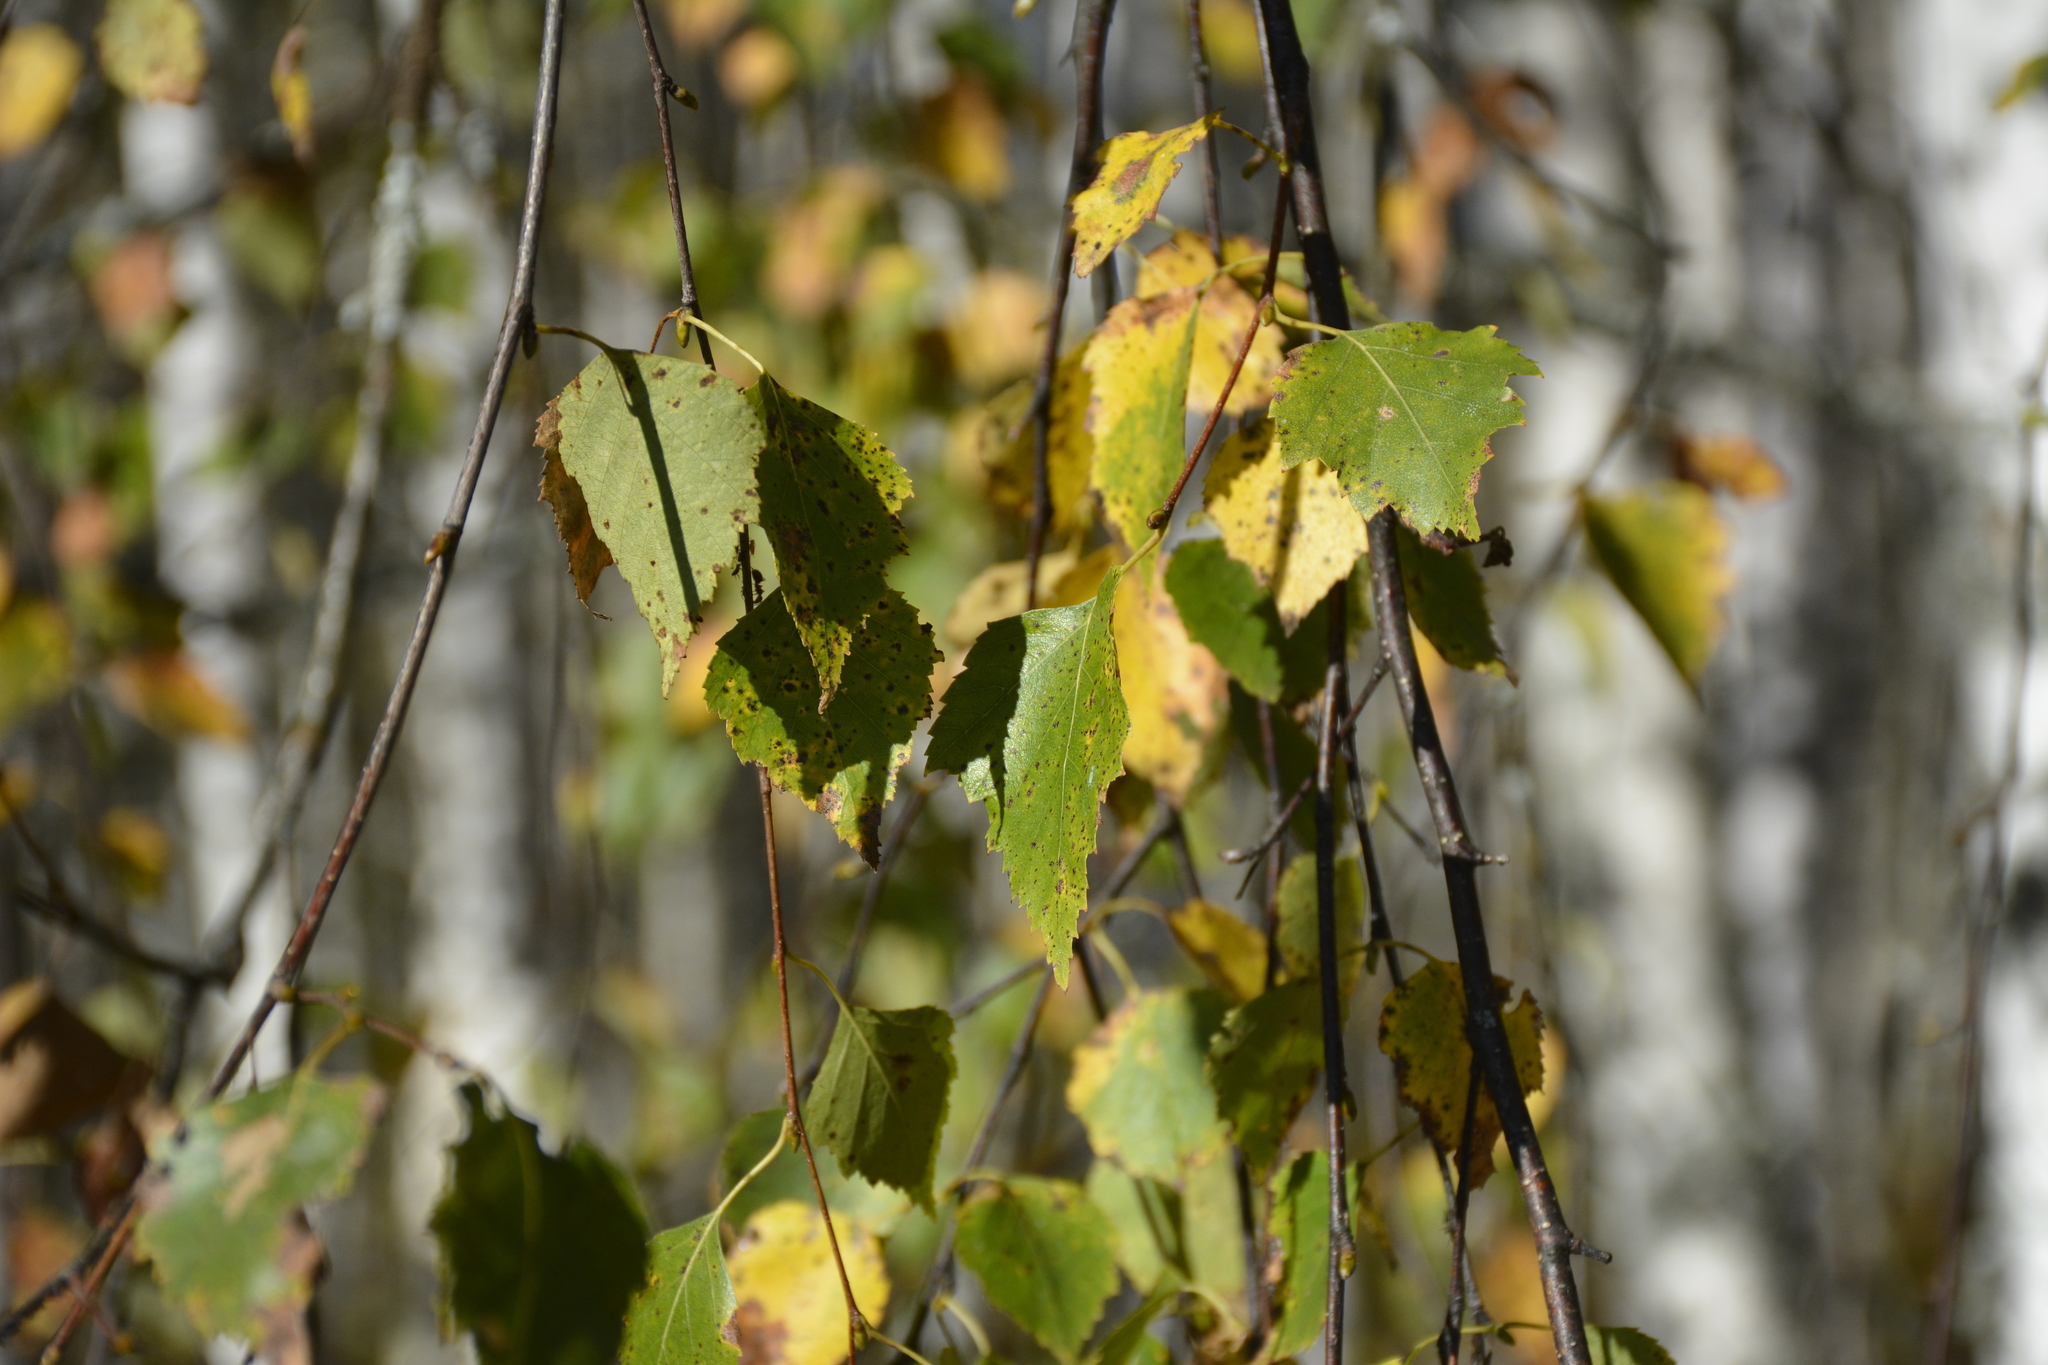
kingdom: Plantae
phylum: Tracheophyta
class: Magnoliopsida
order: Fagales
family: Betulaceae
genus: Betula
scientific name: Betula pendula
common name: Silver birch
